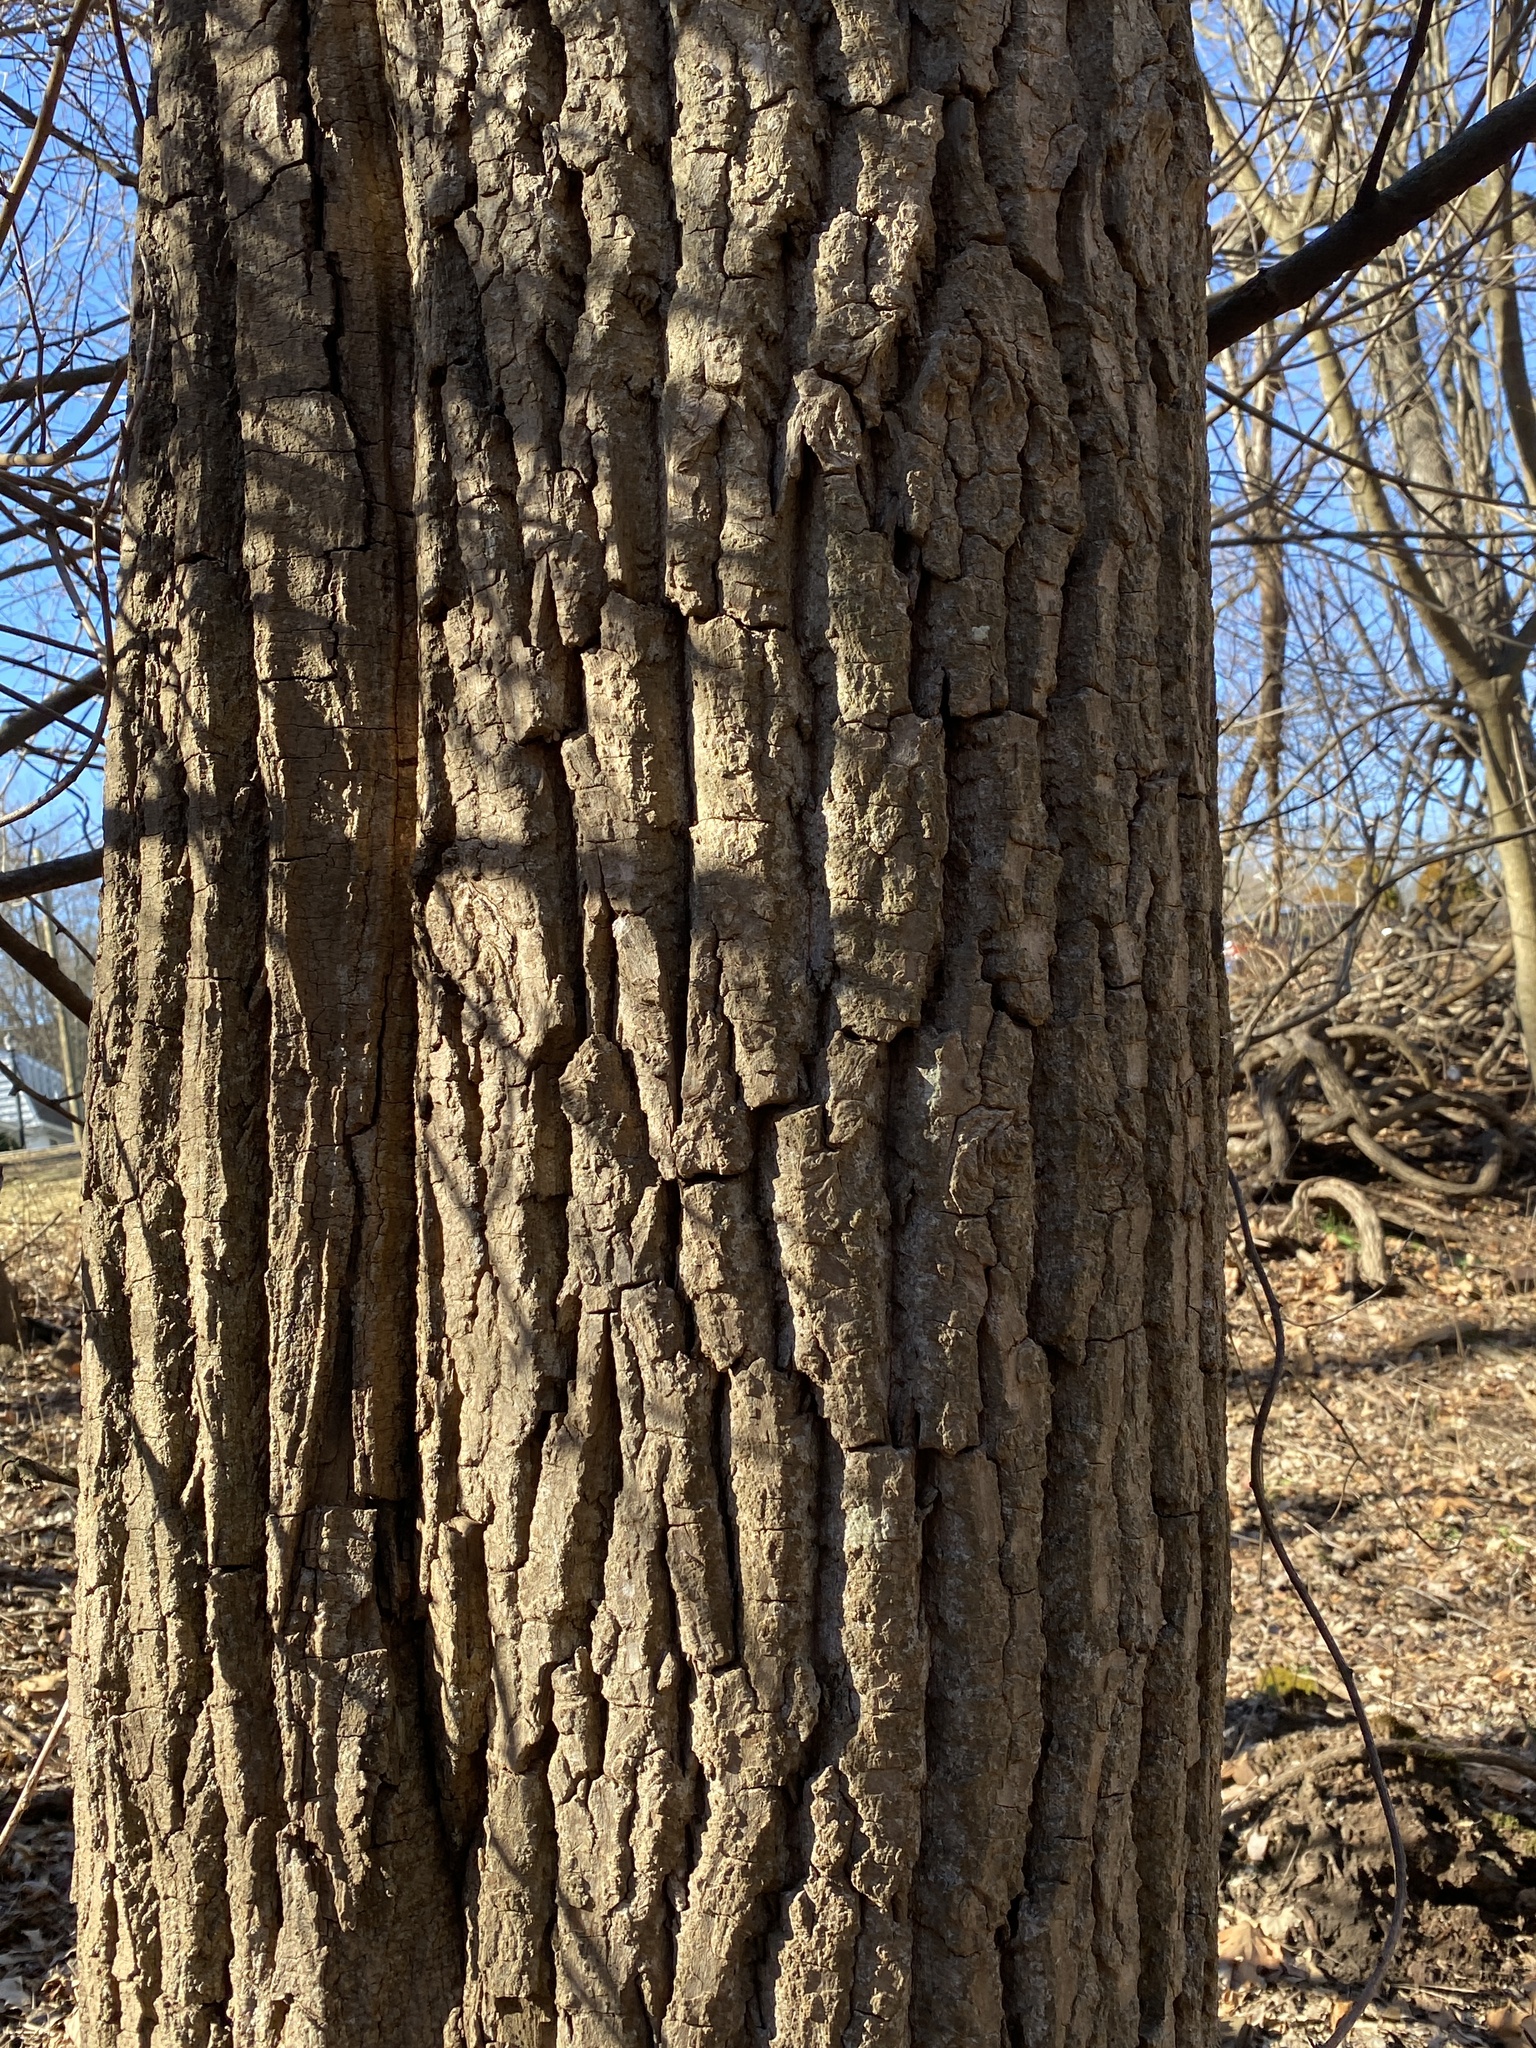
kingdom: Plantae
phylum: Tracheophyta
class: Magnoliopsida
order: Fagales
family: Juglandaceae
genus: Juglans
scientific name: Juglans nigra
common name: Black walnut
